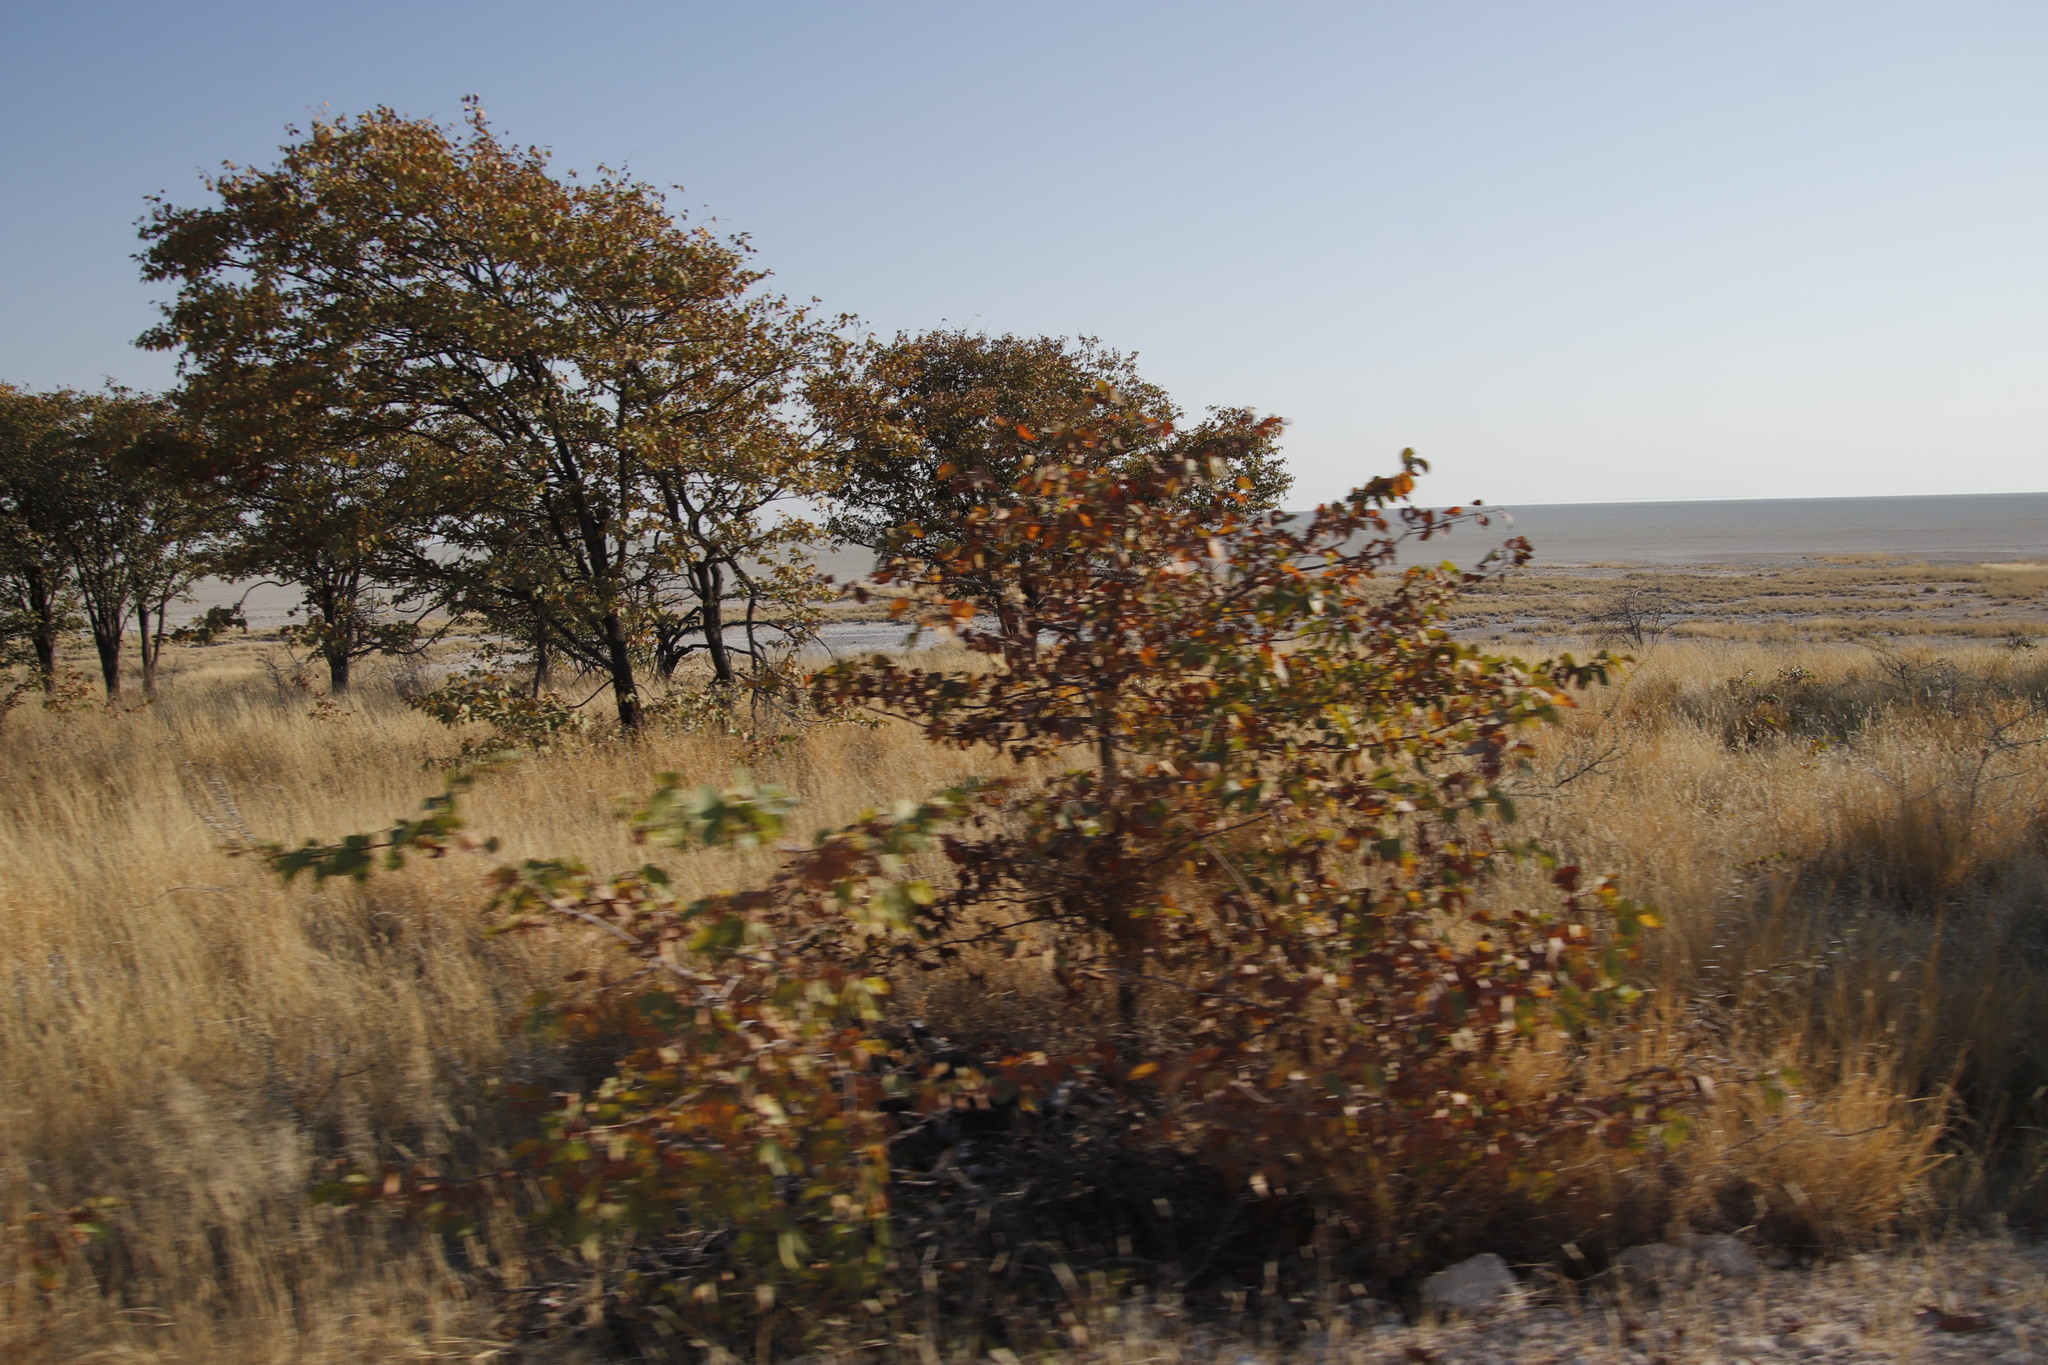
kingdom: Plantae
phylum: Tracheophyta
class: Magnoliopsida
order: Fabales
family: Fabaceae
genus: Colophospermum
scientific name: Colophospermum mopane
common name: Mopane
